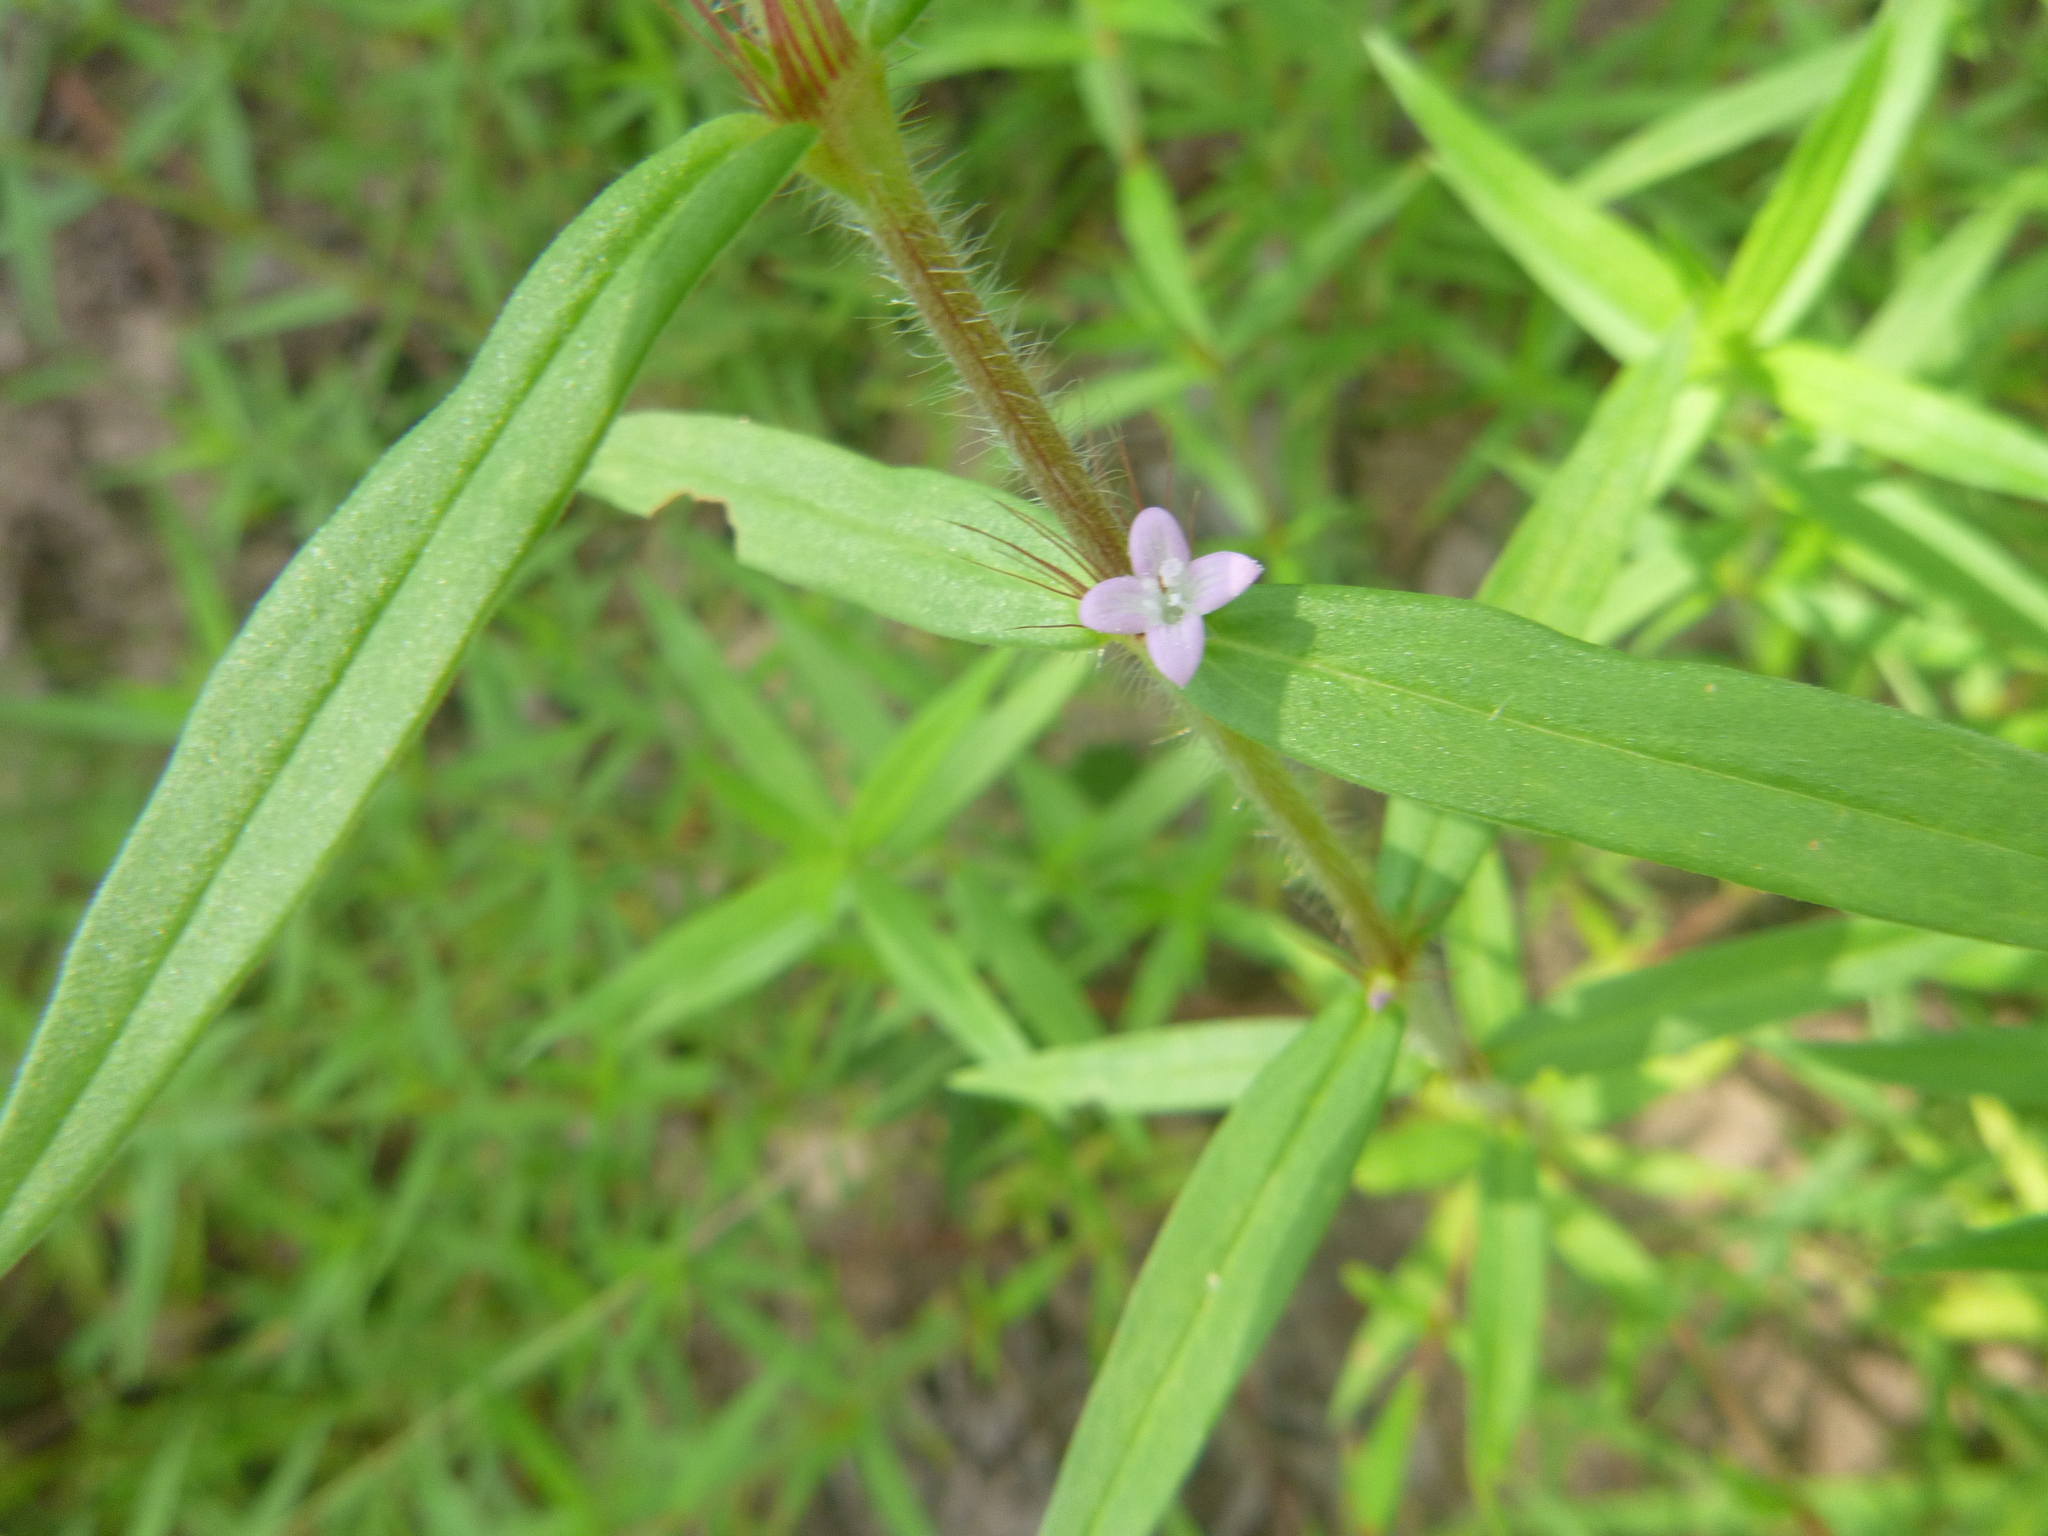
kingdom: Plantae
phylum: Tracheophyta
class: Magnoliopsida
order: Gentianales
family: Rubiaceae
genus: Hexasepalum
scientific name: Hexasepalum teres
